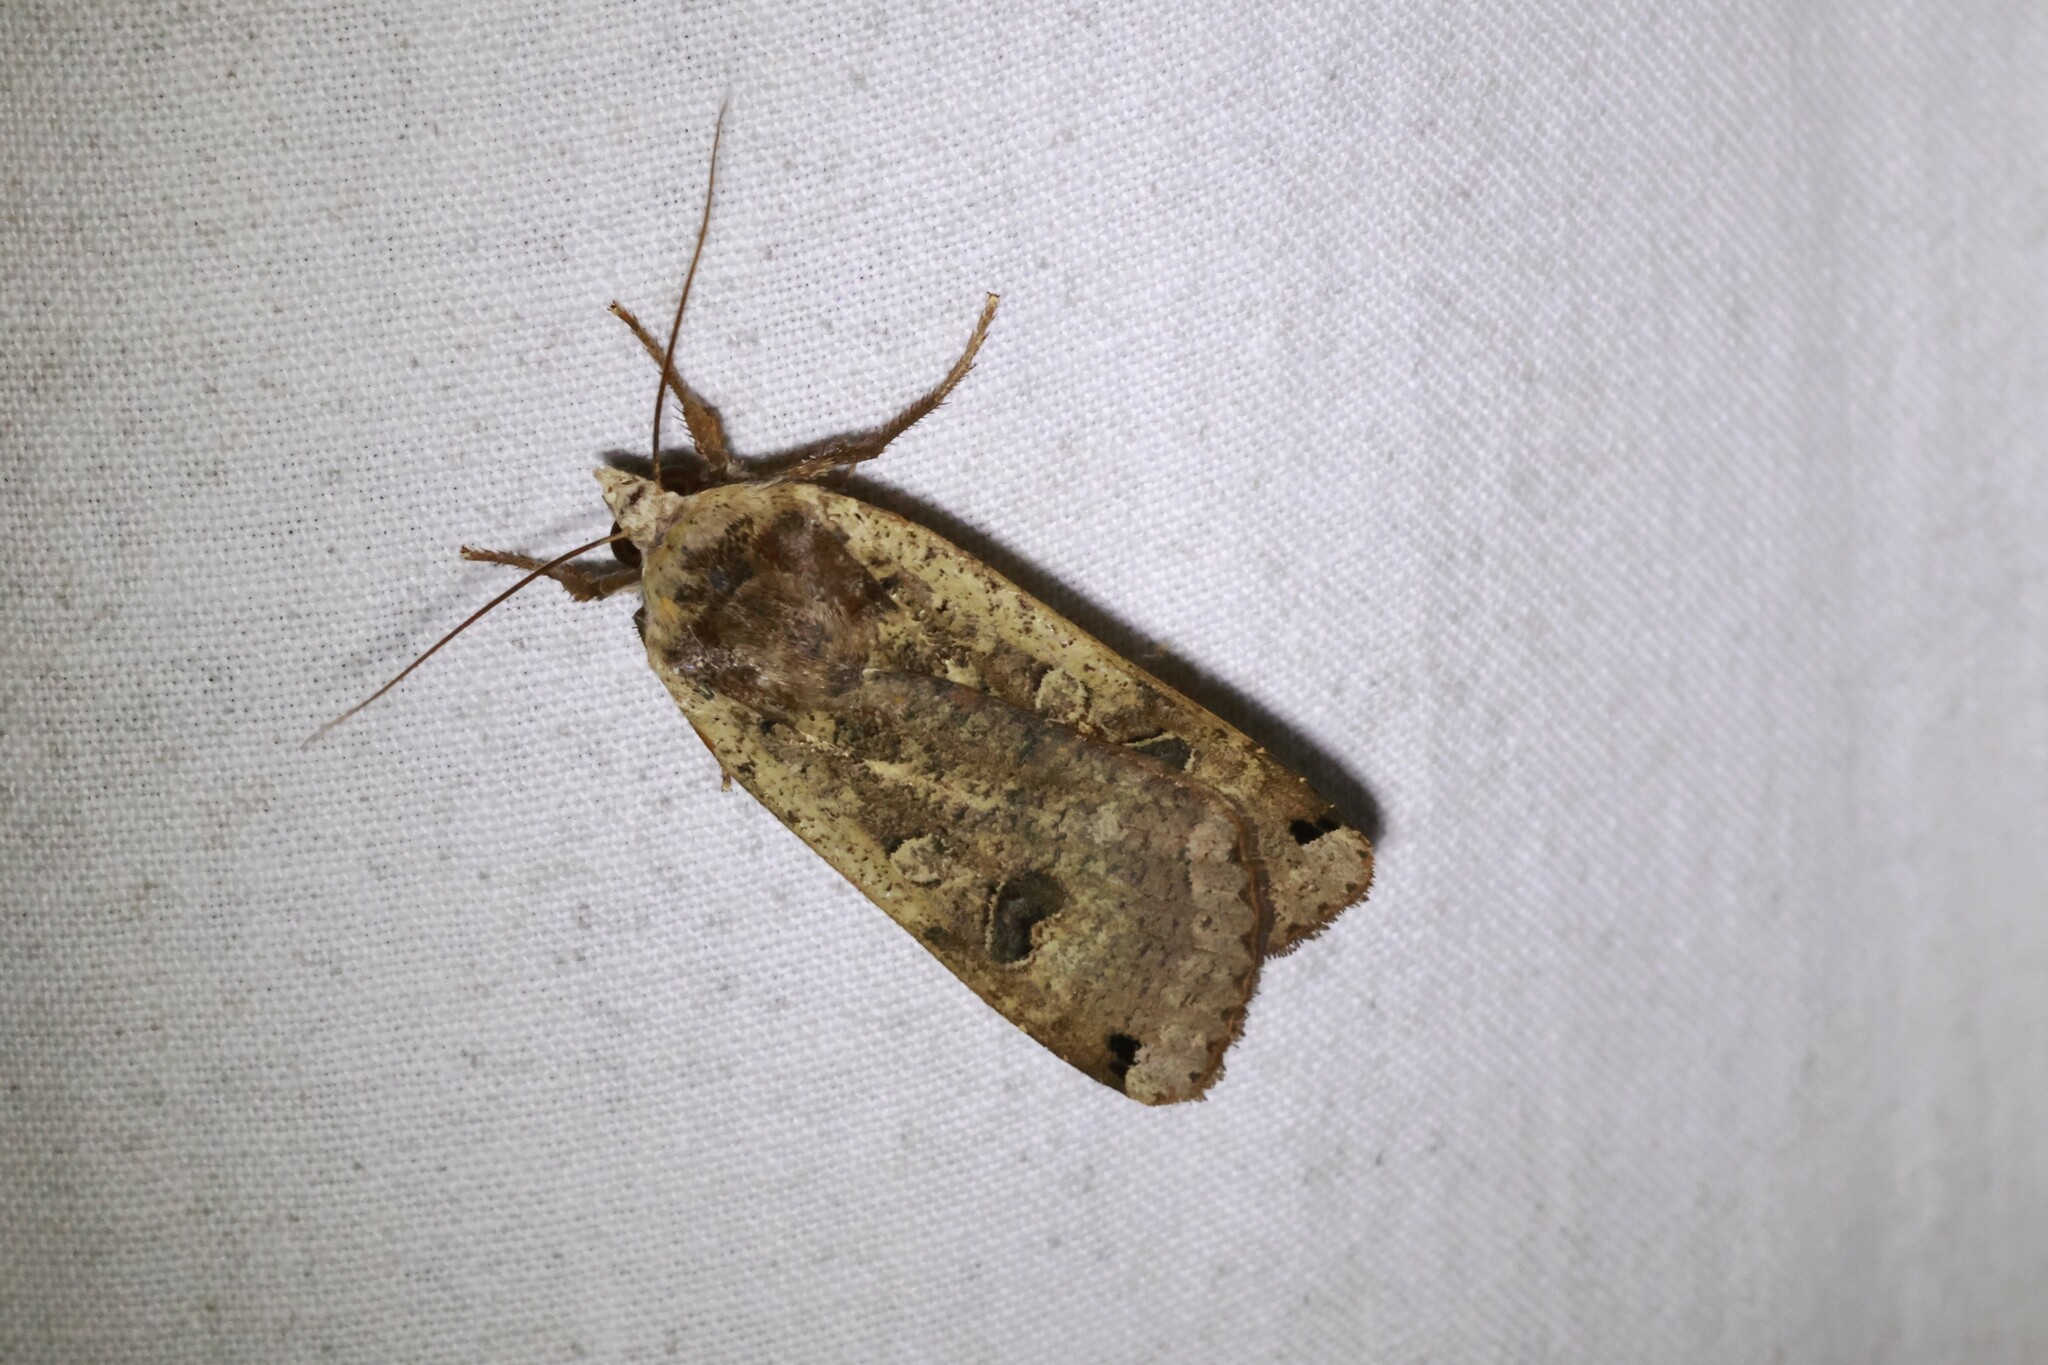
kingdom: Animalia
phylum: Arthropoda
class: Insecta
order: Lepidoptera
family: Noctuidae
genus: Noctua
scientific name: Noctua pronuba
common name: Large yellow underwing
